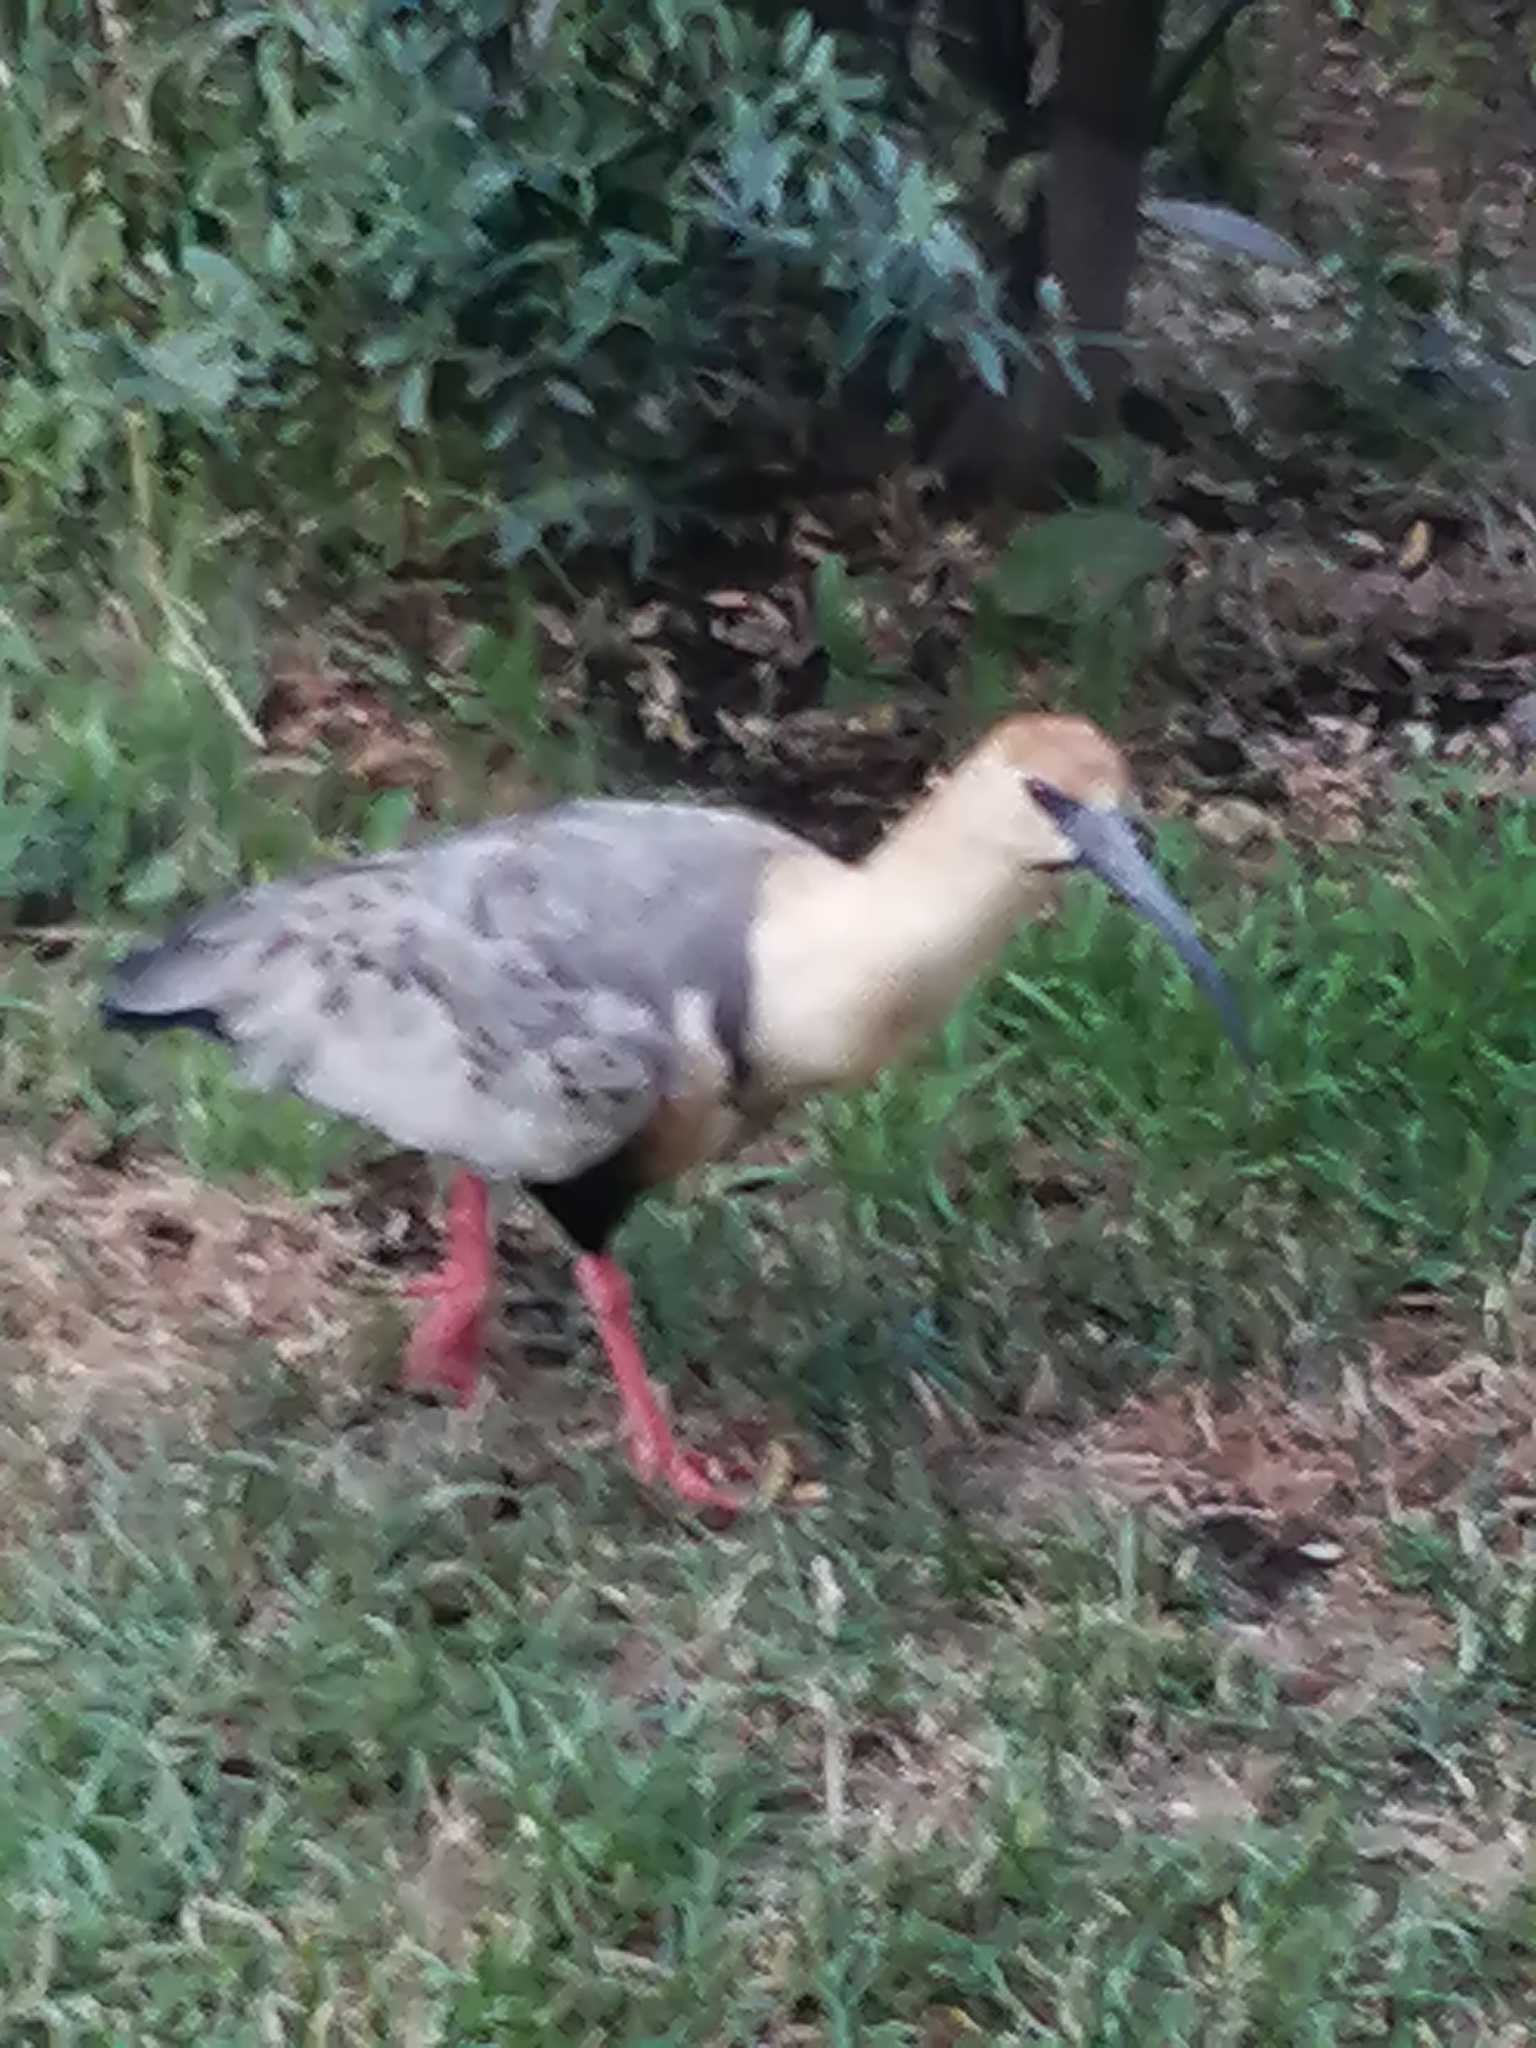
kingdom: Animalia
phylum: Chordata
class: Aves
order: Pelecaniformes
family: Threskiornithidae
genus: Theristicus
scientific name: Theristicus melanopis
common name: Black-faced ibis
